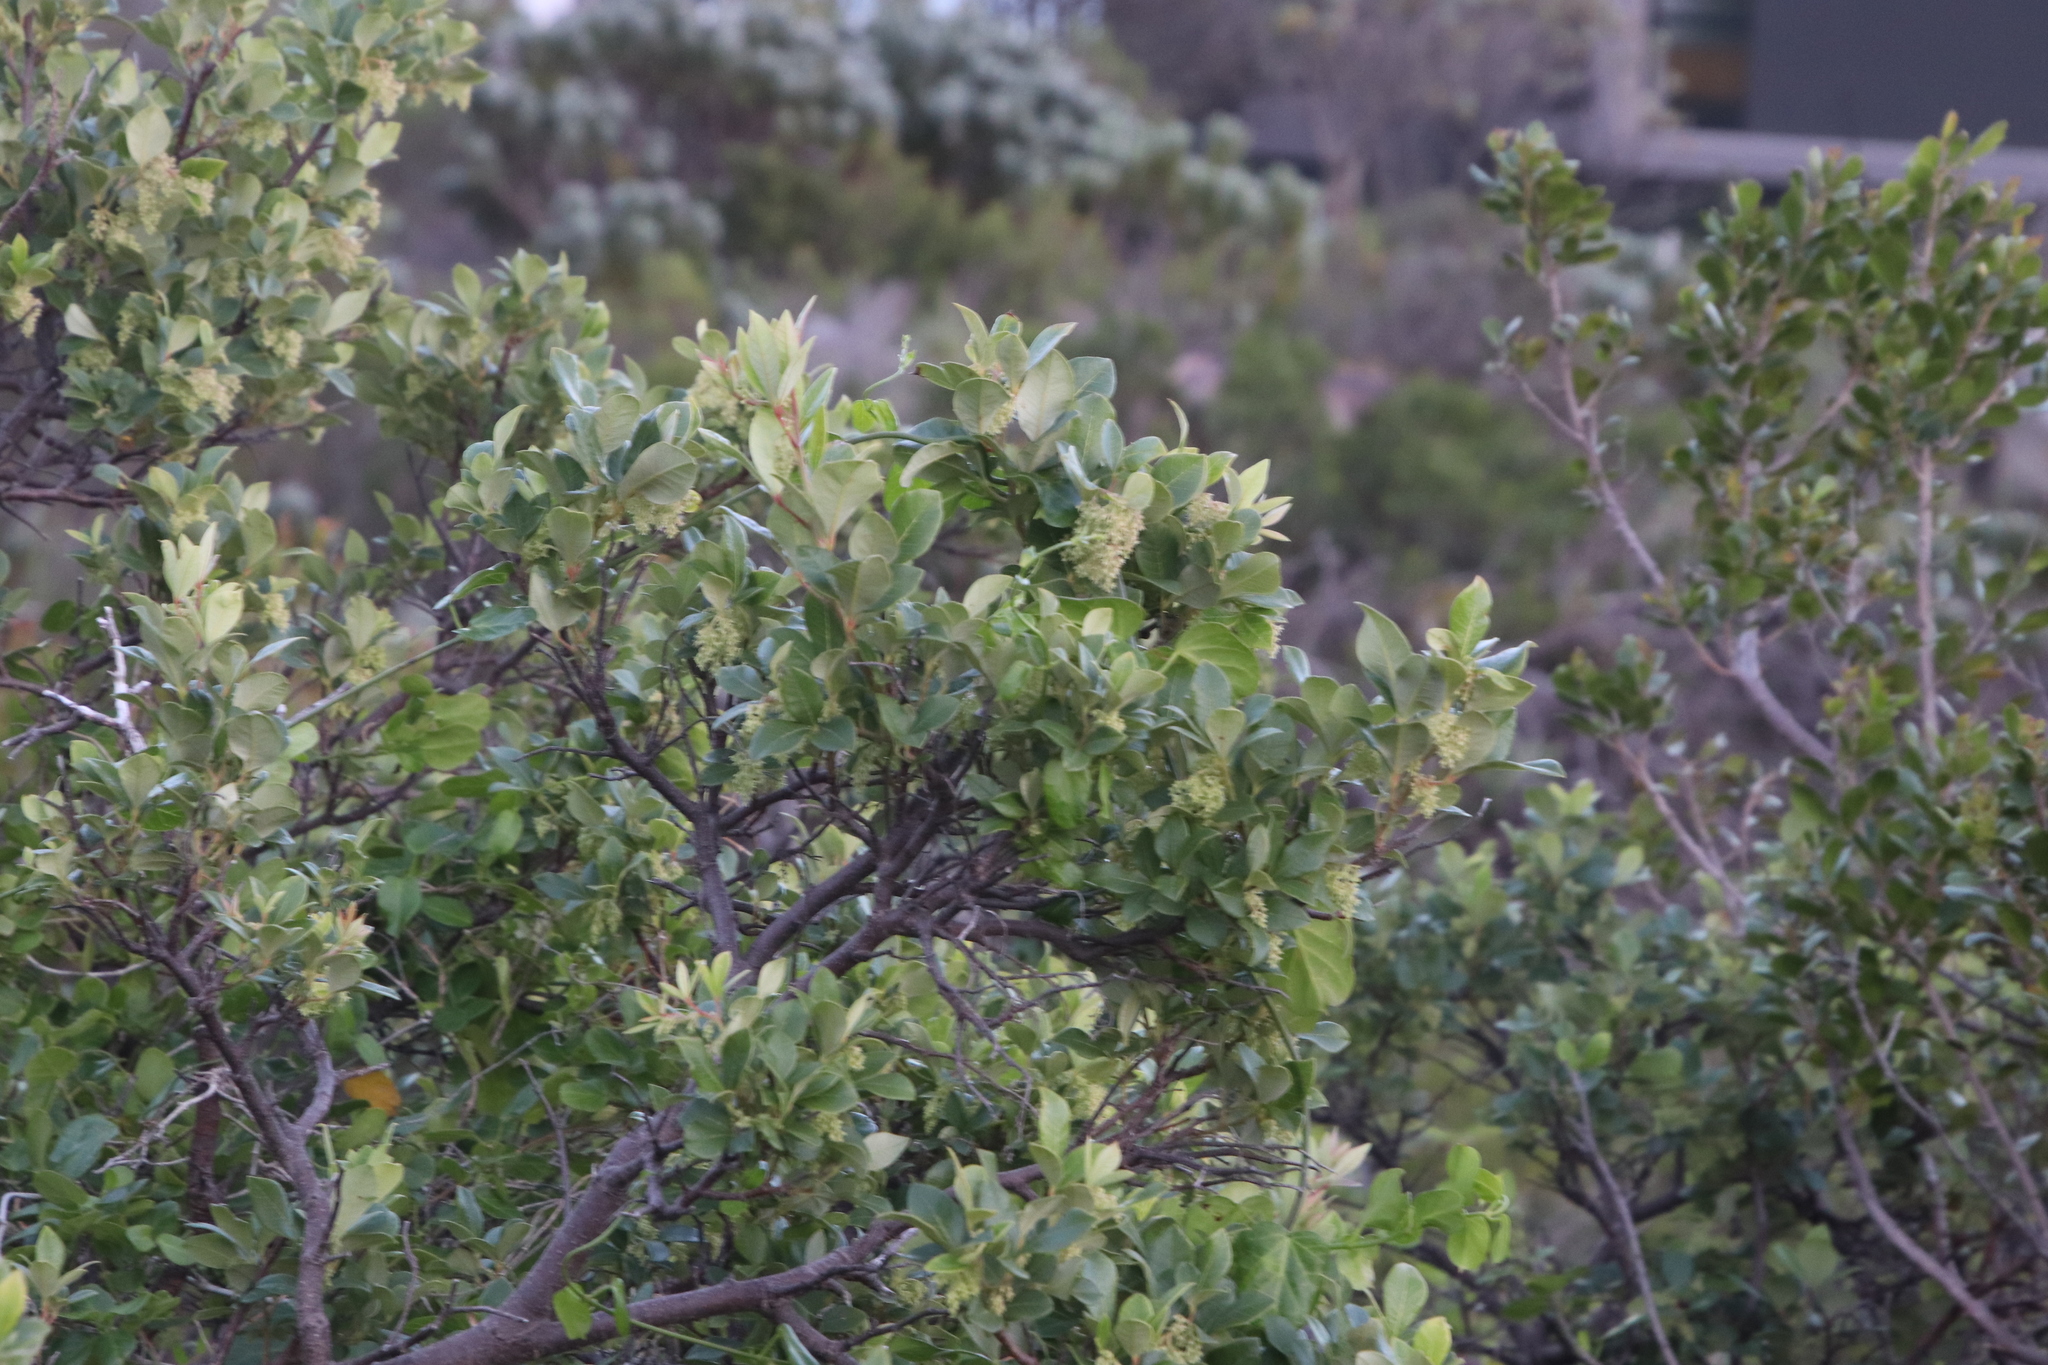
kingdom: Plantae
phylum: Tracheophyta
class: Magnoliopsida
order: Sapindales
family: Anacardiaceae
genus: Searsia
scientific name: Searsia tomentosa
